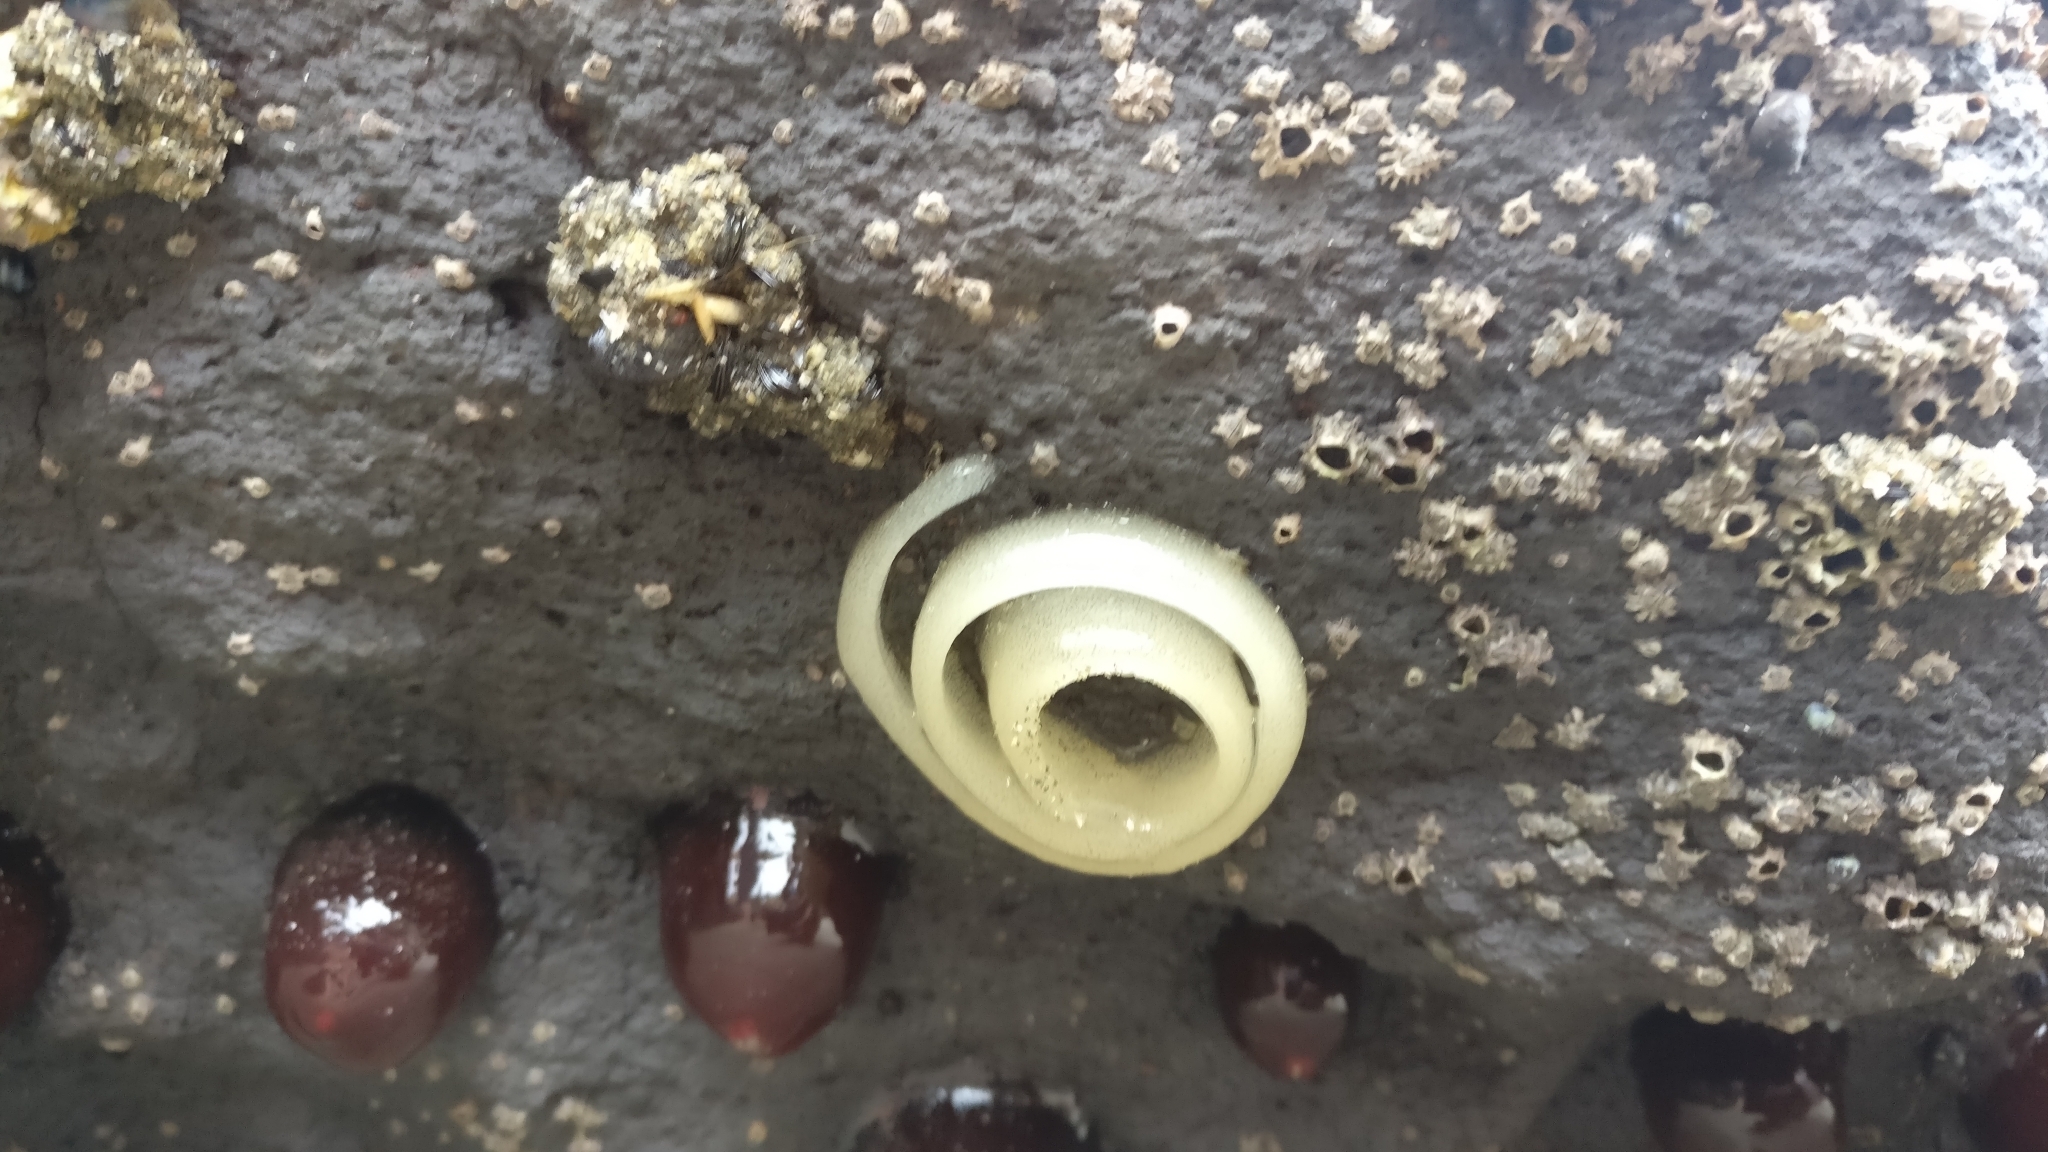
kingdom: Animalia
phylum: Mollusca
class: Gastropoda
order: Siphonariida
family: Siphonariidae
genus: Benhamina
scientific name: Benhamina obliquata
